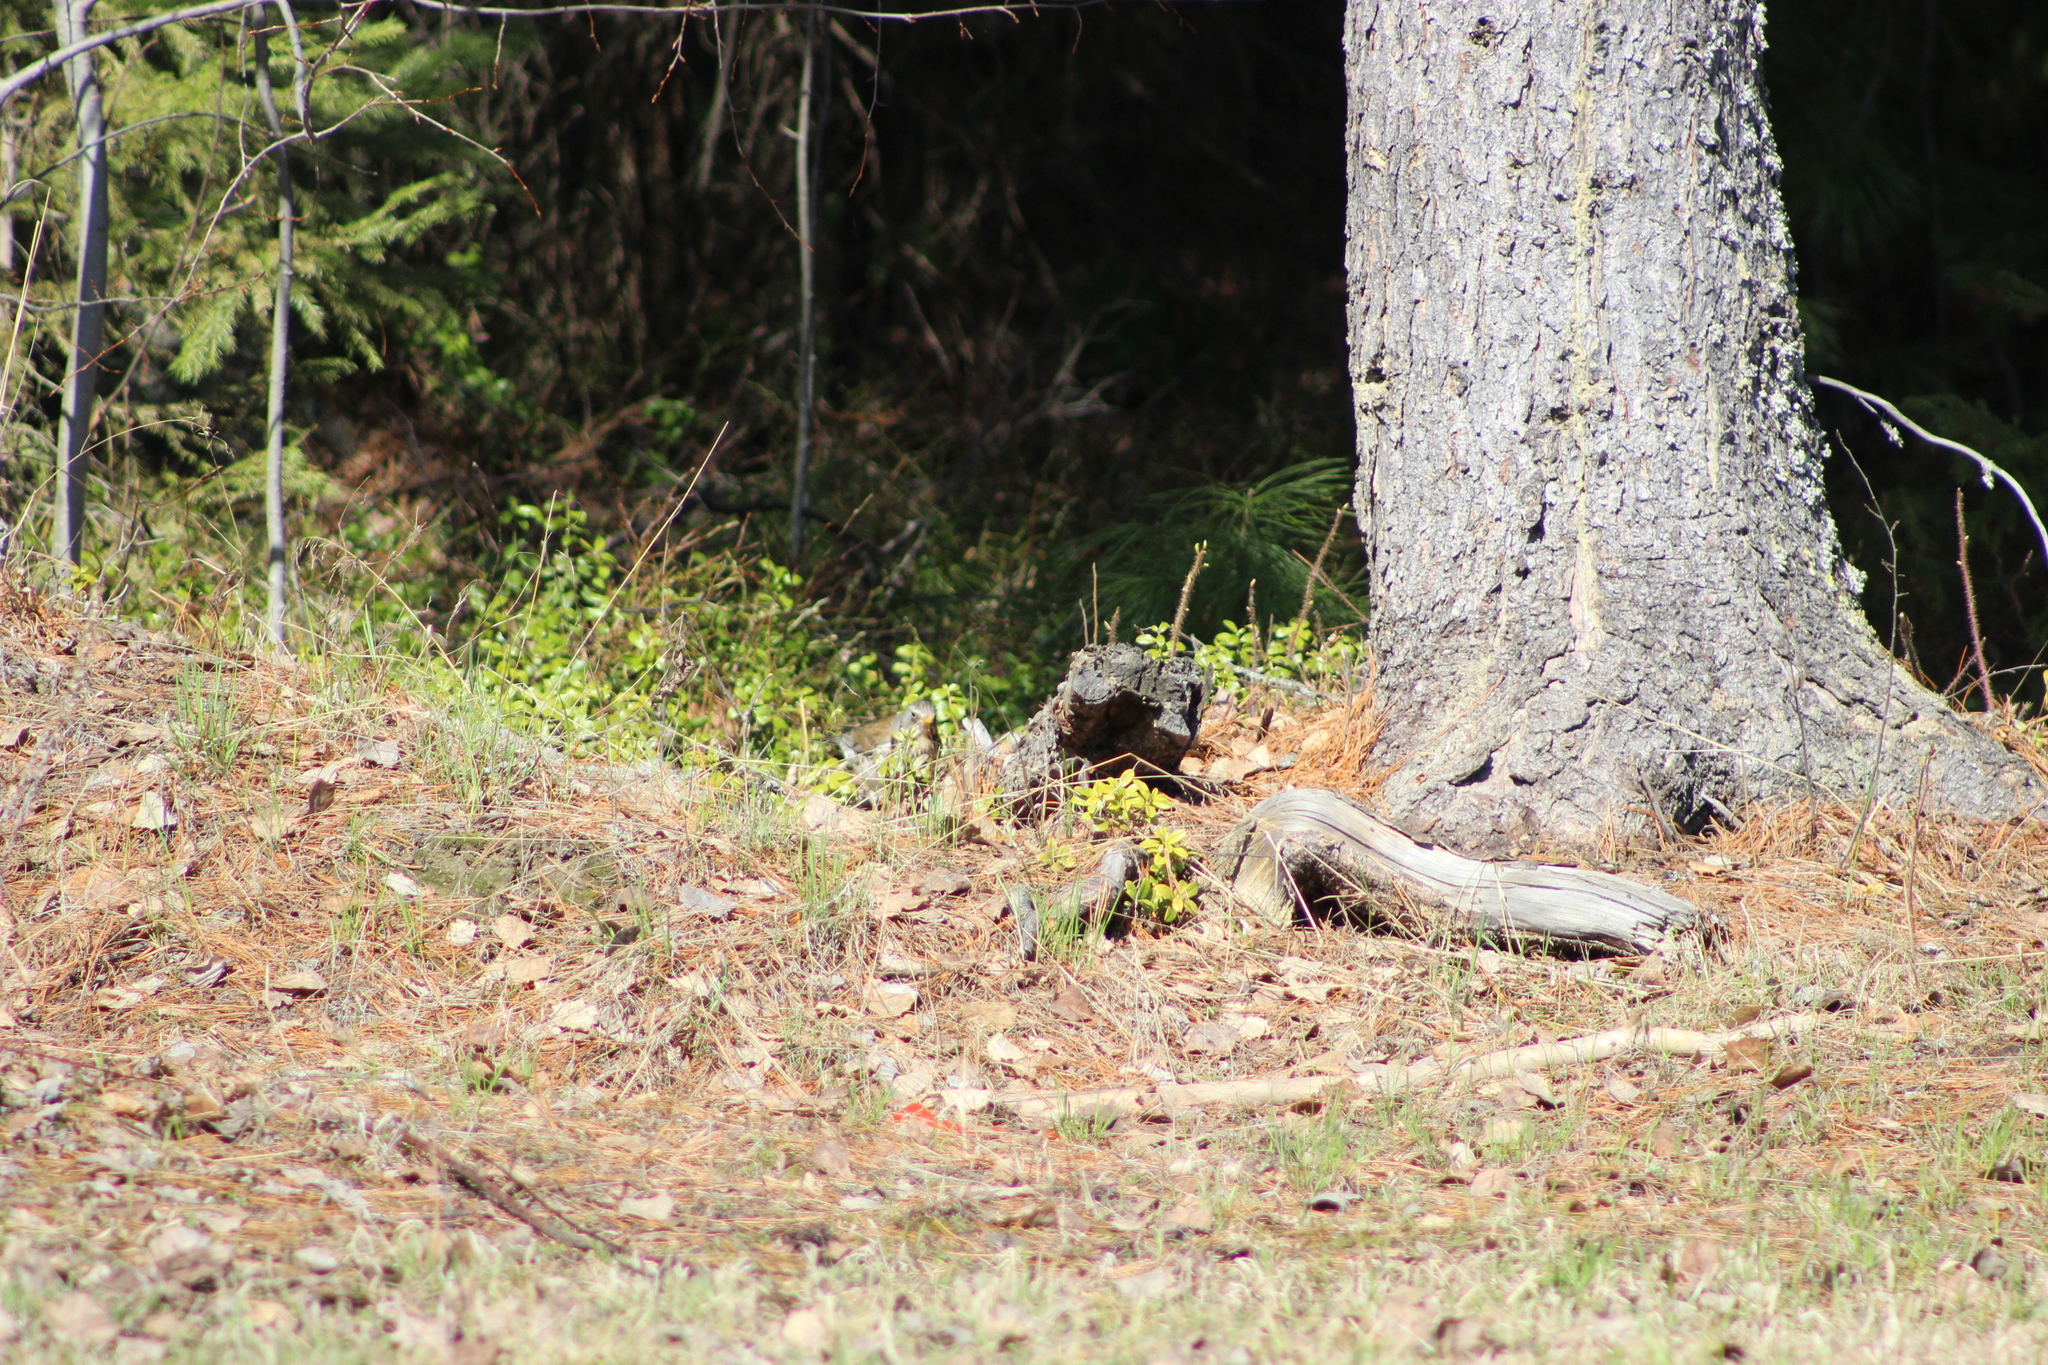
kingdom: Animalia
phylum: Chordata
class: Aves
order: Passeriformes
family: Turdidae
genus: Turdus
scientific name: Turdus pilaris
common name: Fieldfare
